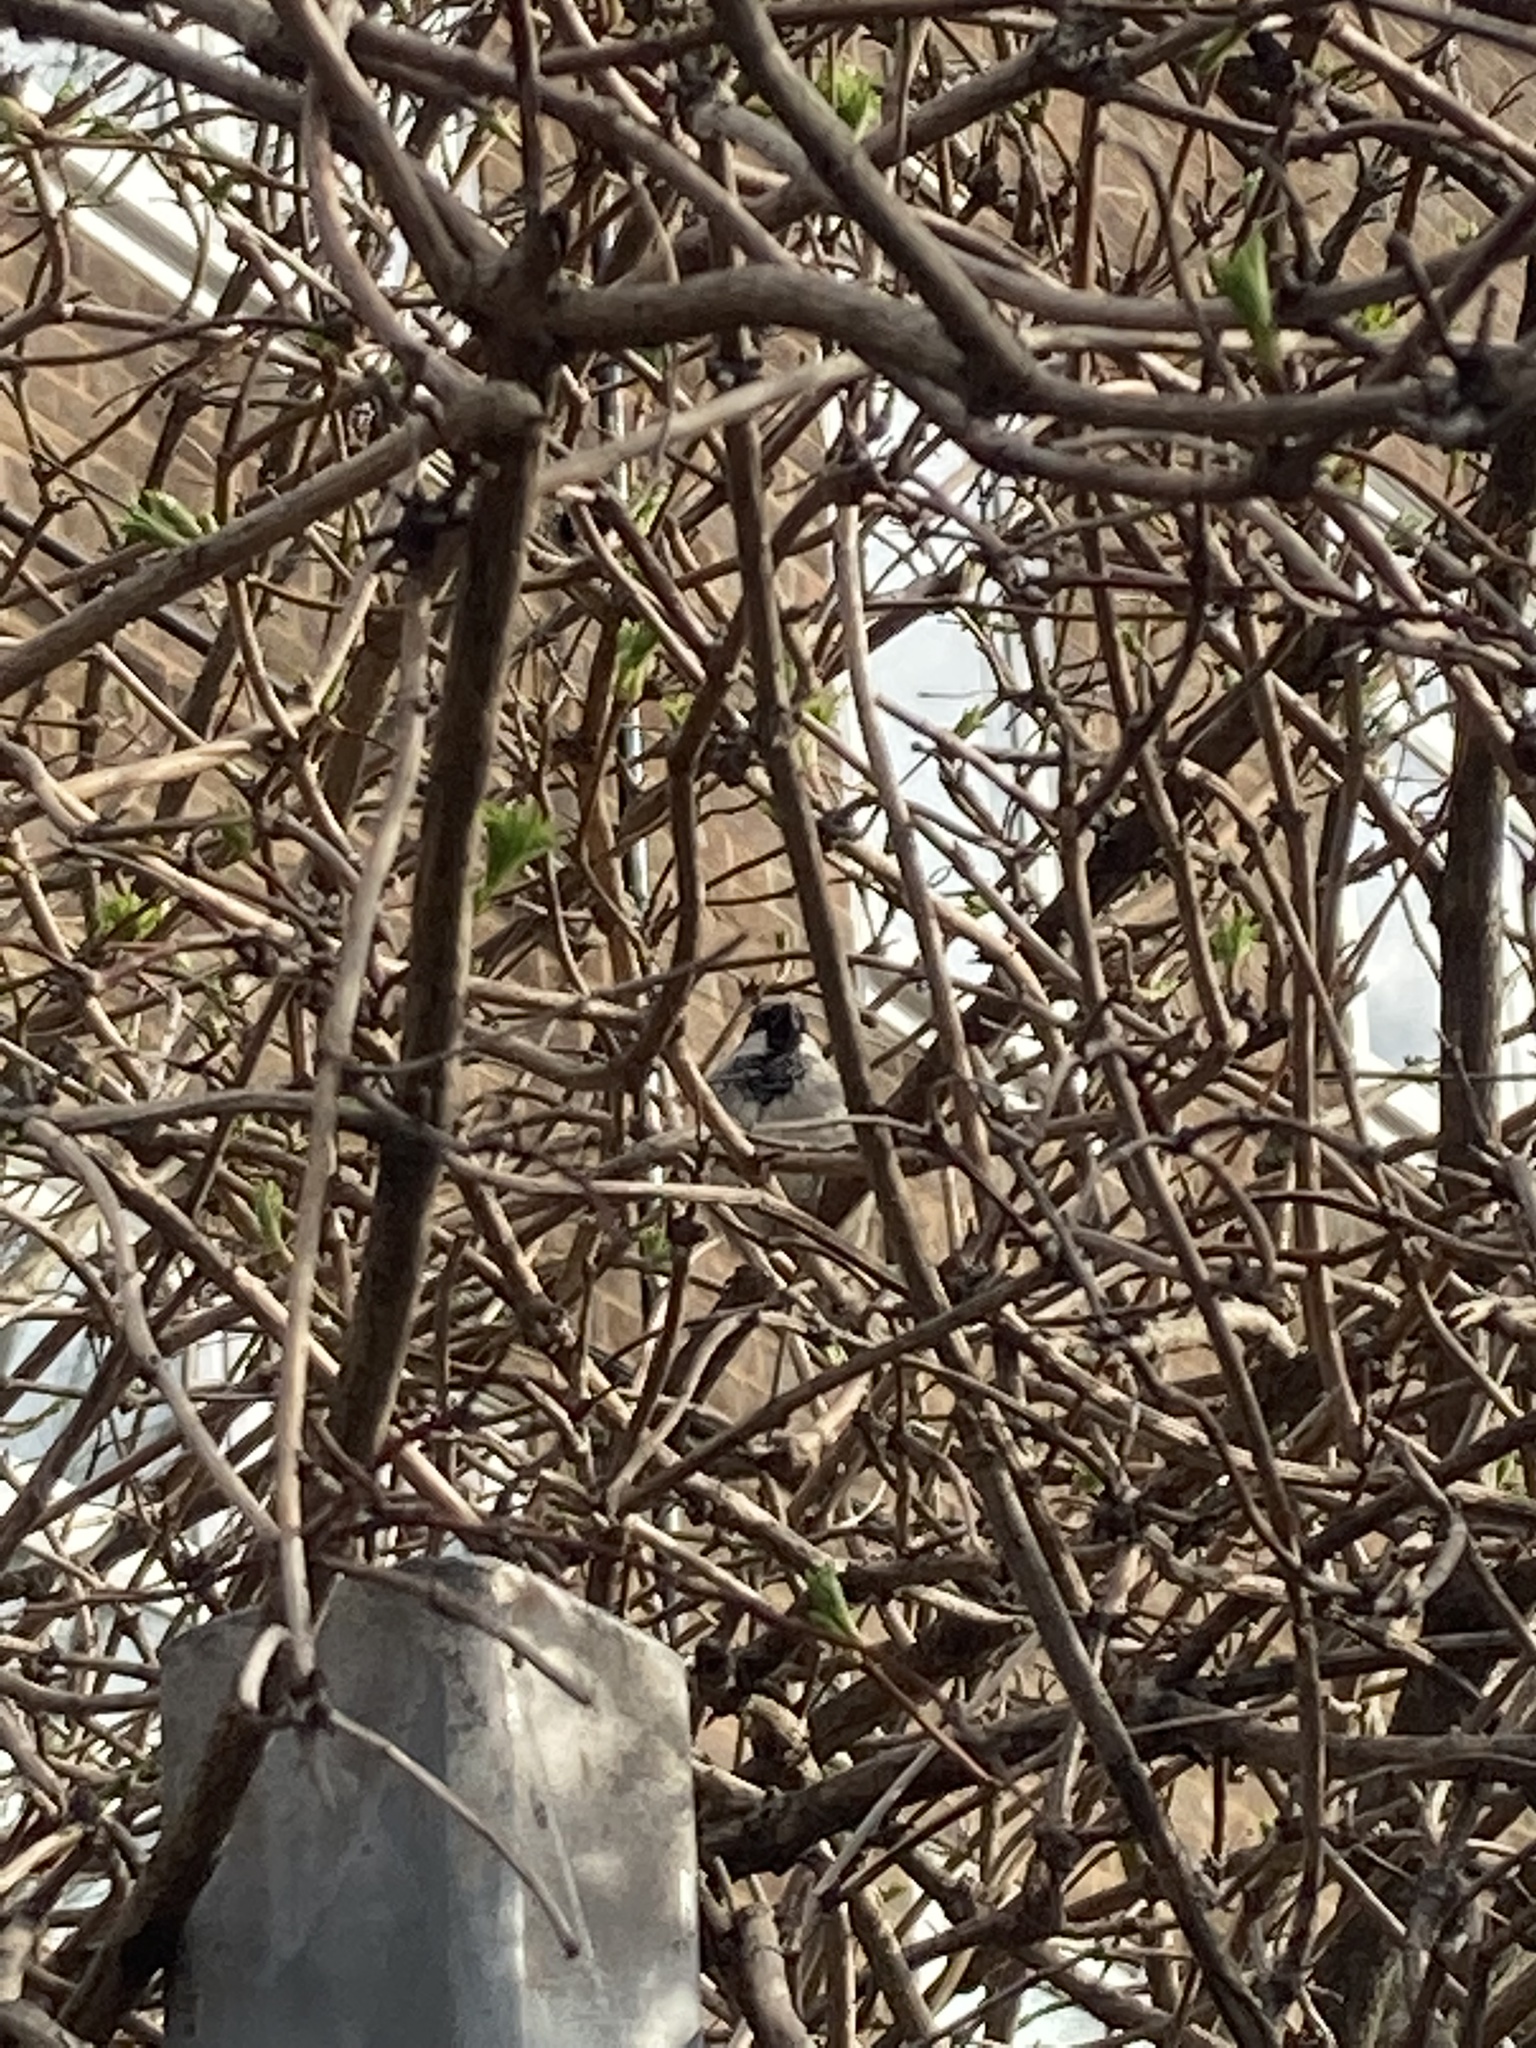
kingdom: Animalia
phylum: Chordata
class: Aves
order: Passeriformes
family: Passeridae
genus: Passer
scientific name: Passer domesticus
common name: House sparrow
